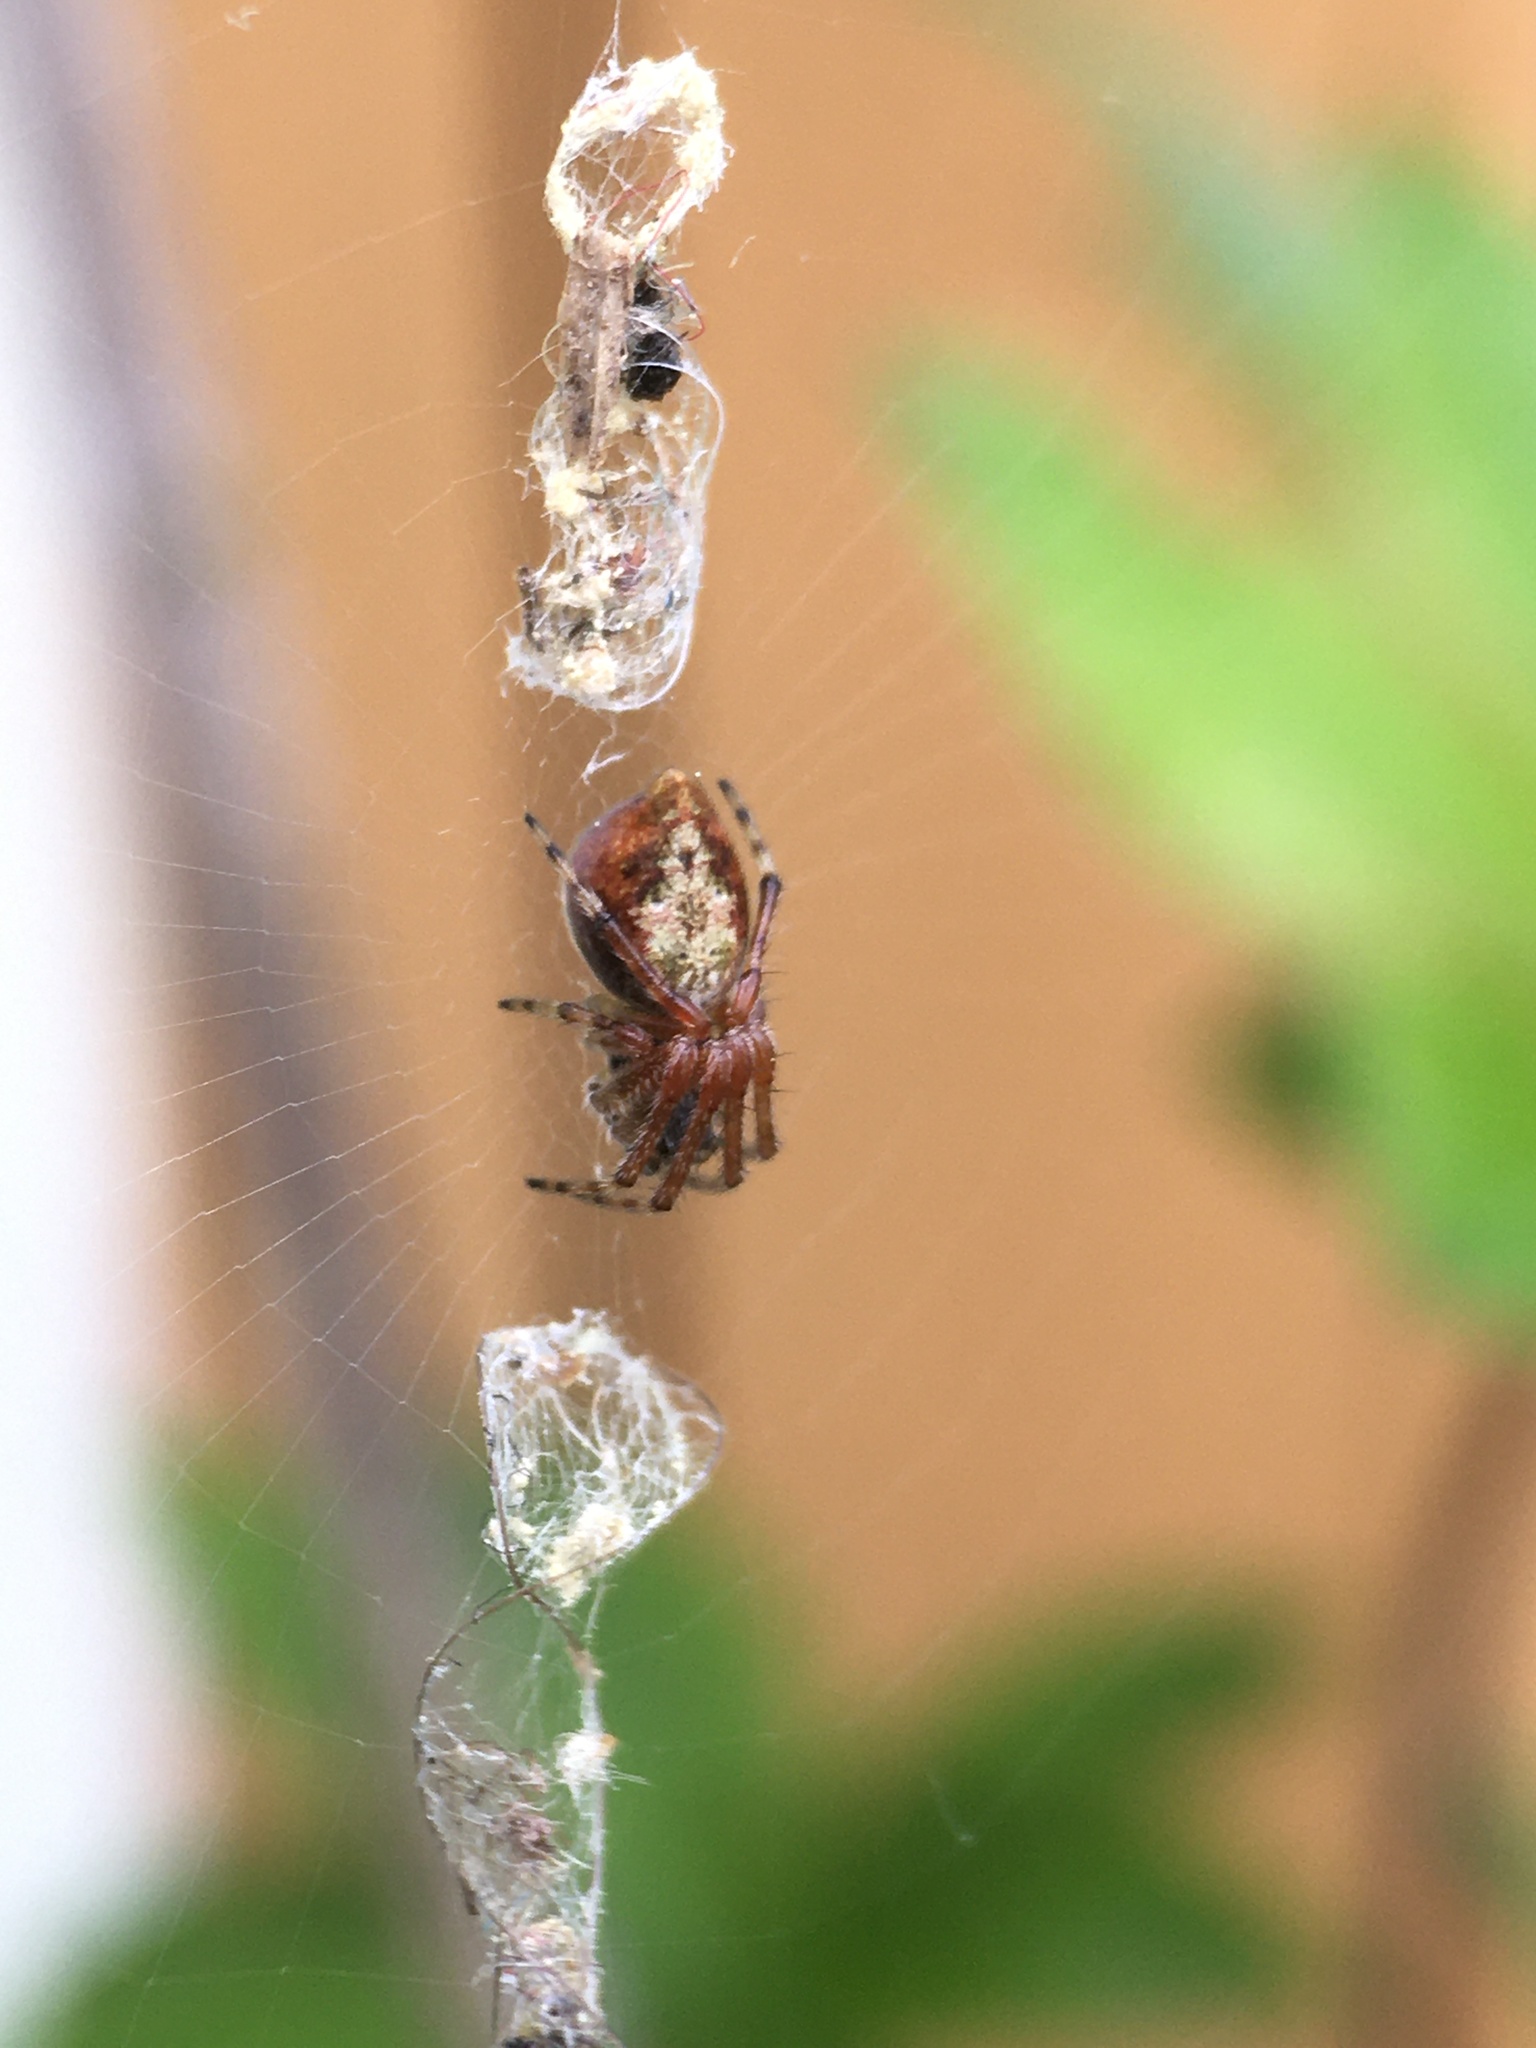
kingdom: Animalia
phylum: Arthropoda
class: Arachnida
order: Araneae
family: Araneidae
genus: Cyclosa
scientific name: Cyclosa conica
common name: Conical trashline orbweaver
